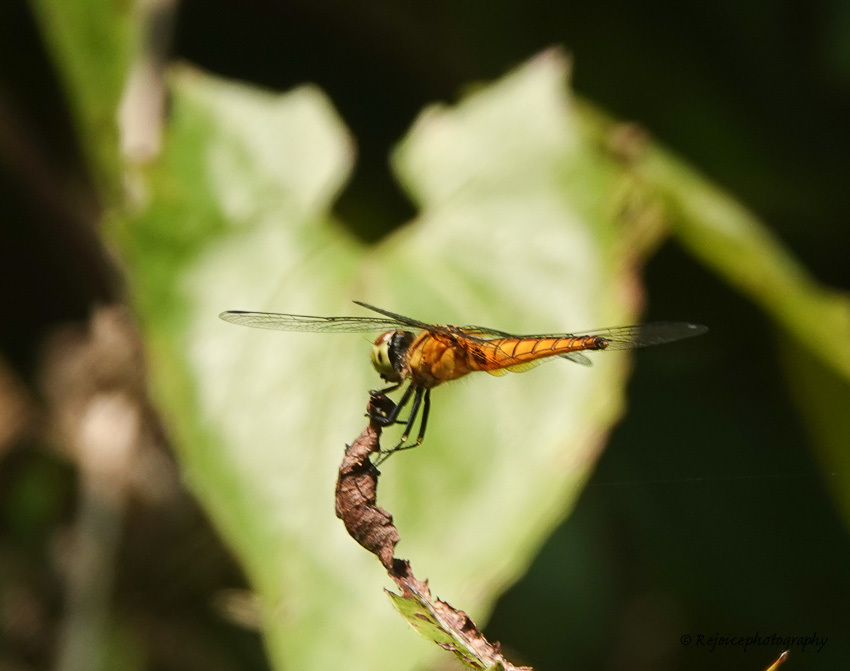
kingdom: Animalia
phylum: Arthropoda
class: Insecta
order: Odonata
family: Libellulidae
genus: Aethriamanta
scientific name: Aethriamanta brevipennis
